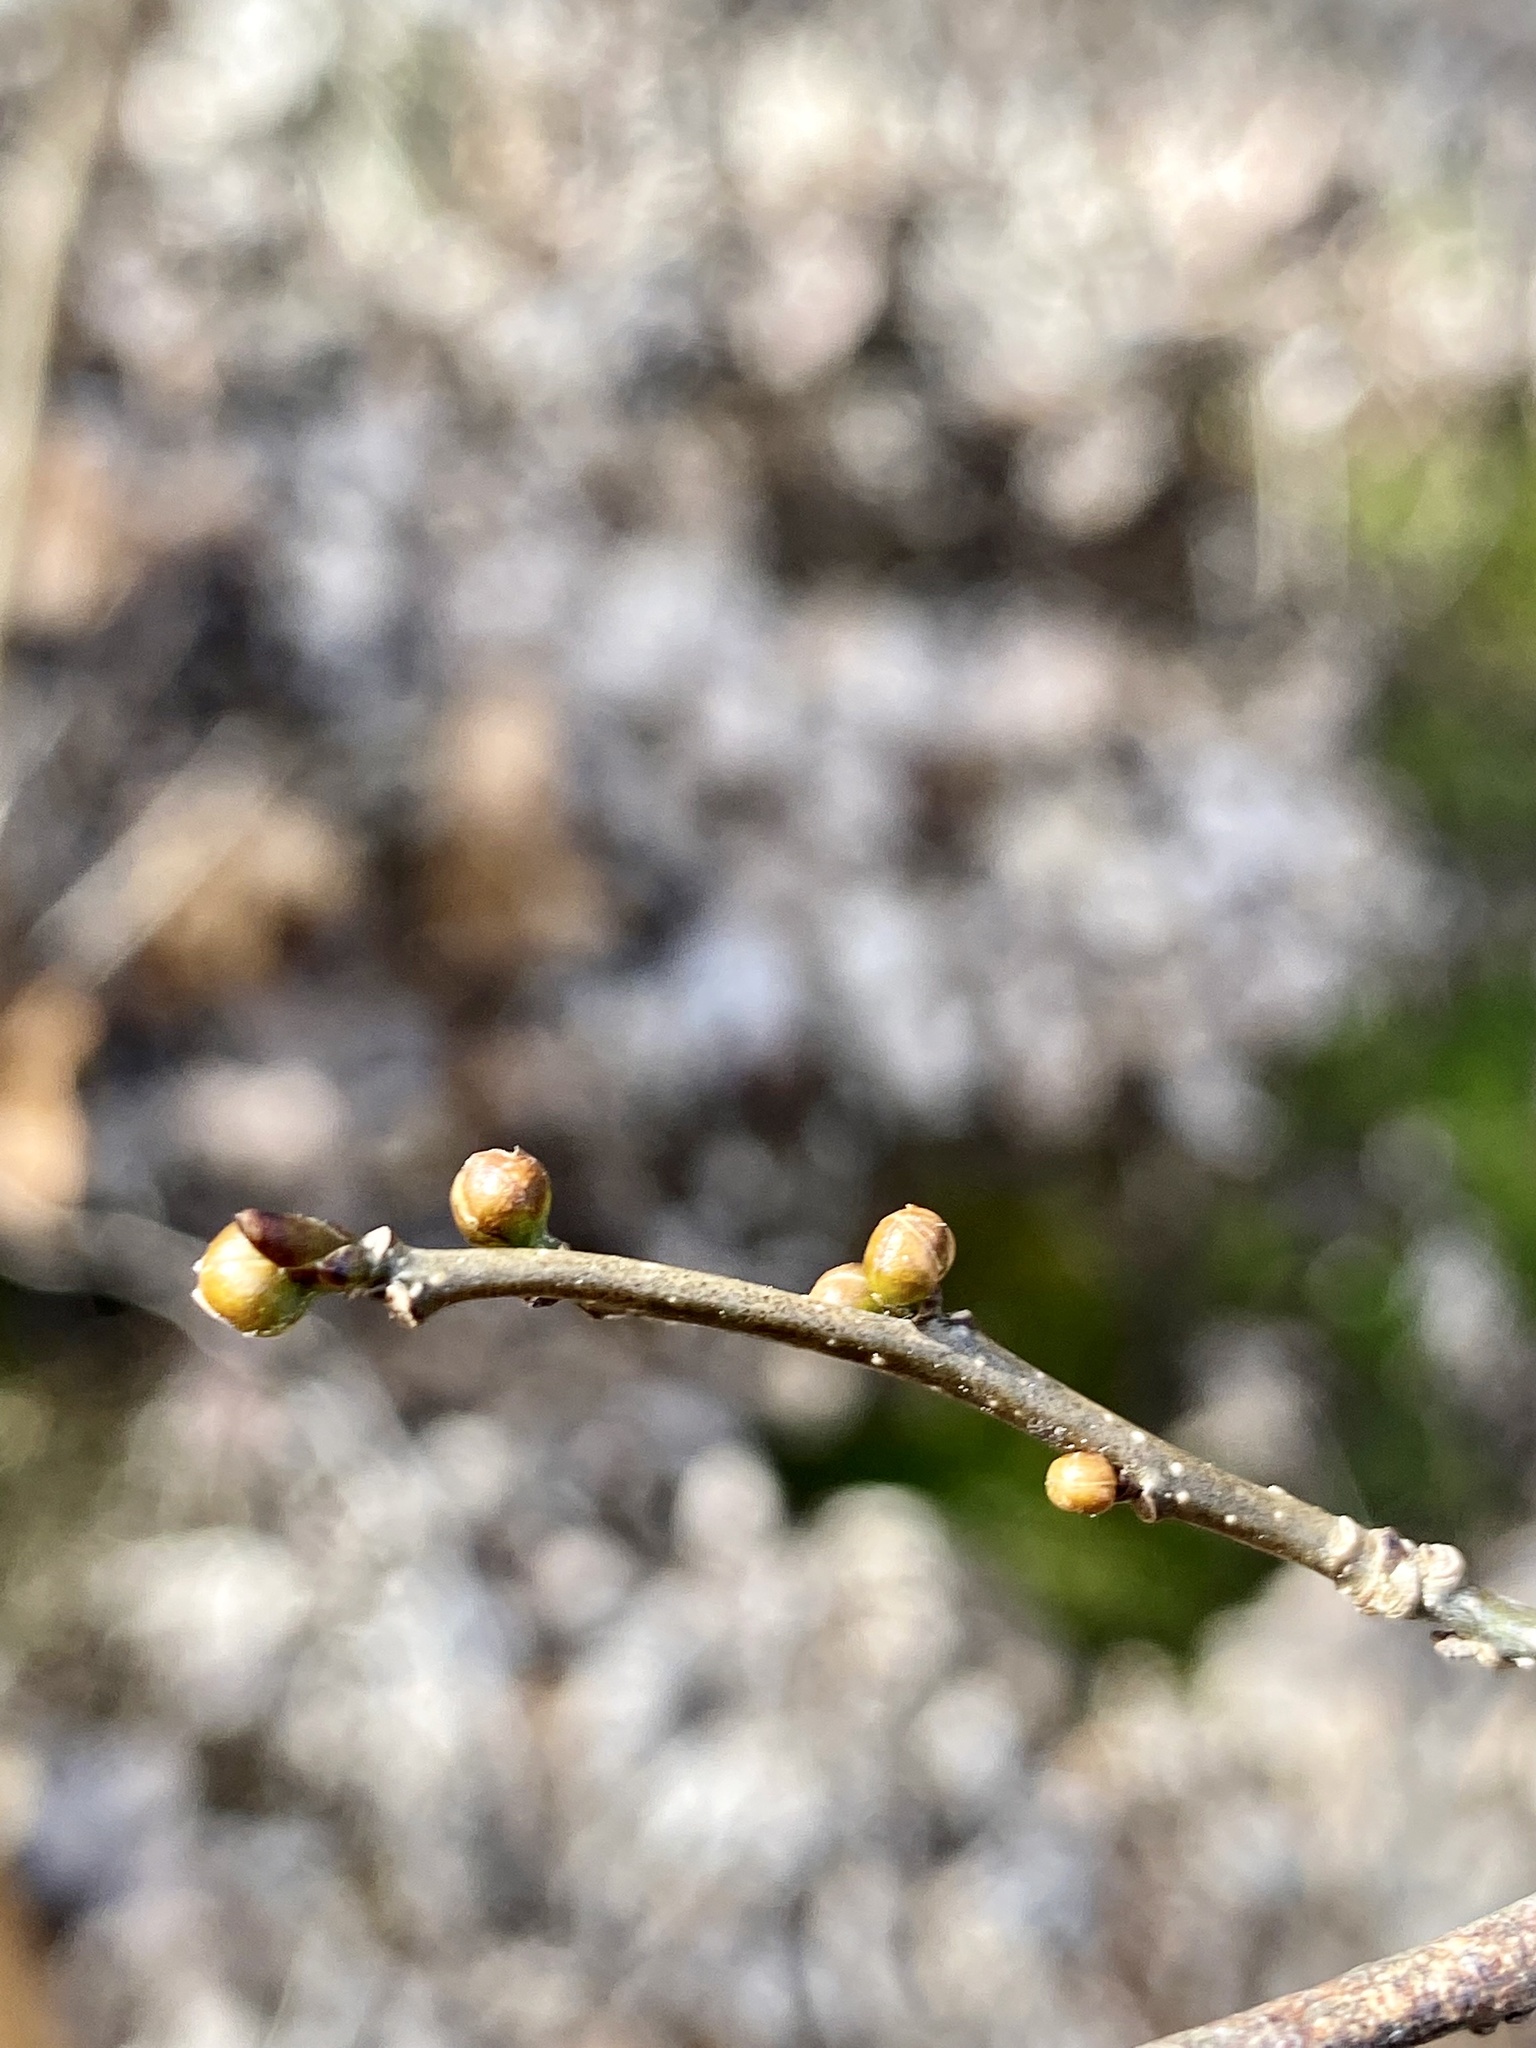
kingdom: Plantae
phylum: Tracheophyta
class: Magnoliopsida
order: Laurales
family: Lauraceae
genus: Lindera
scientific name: Lindera benzoin
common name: Spicebush
